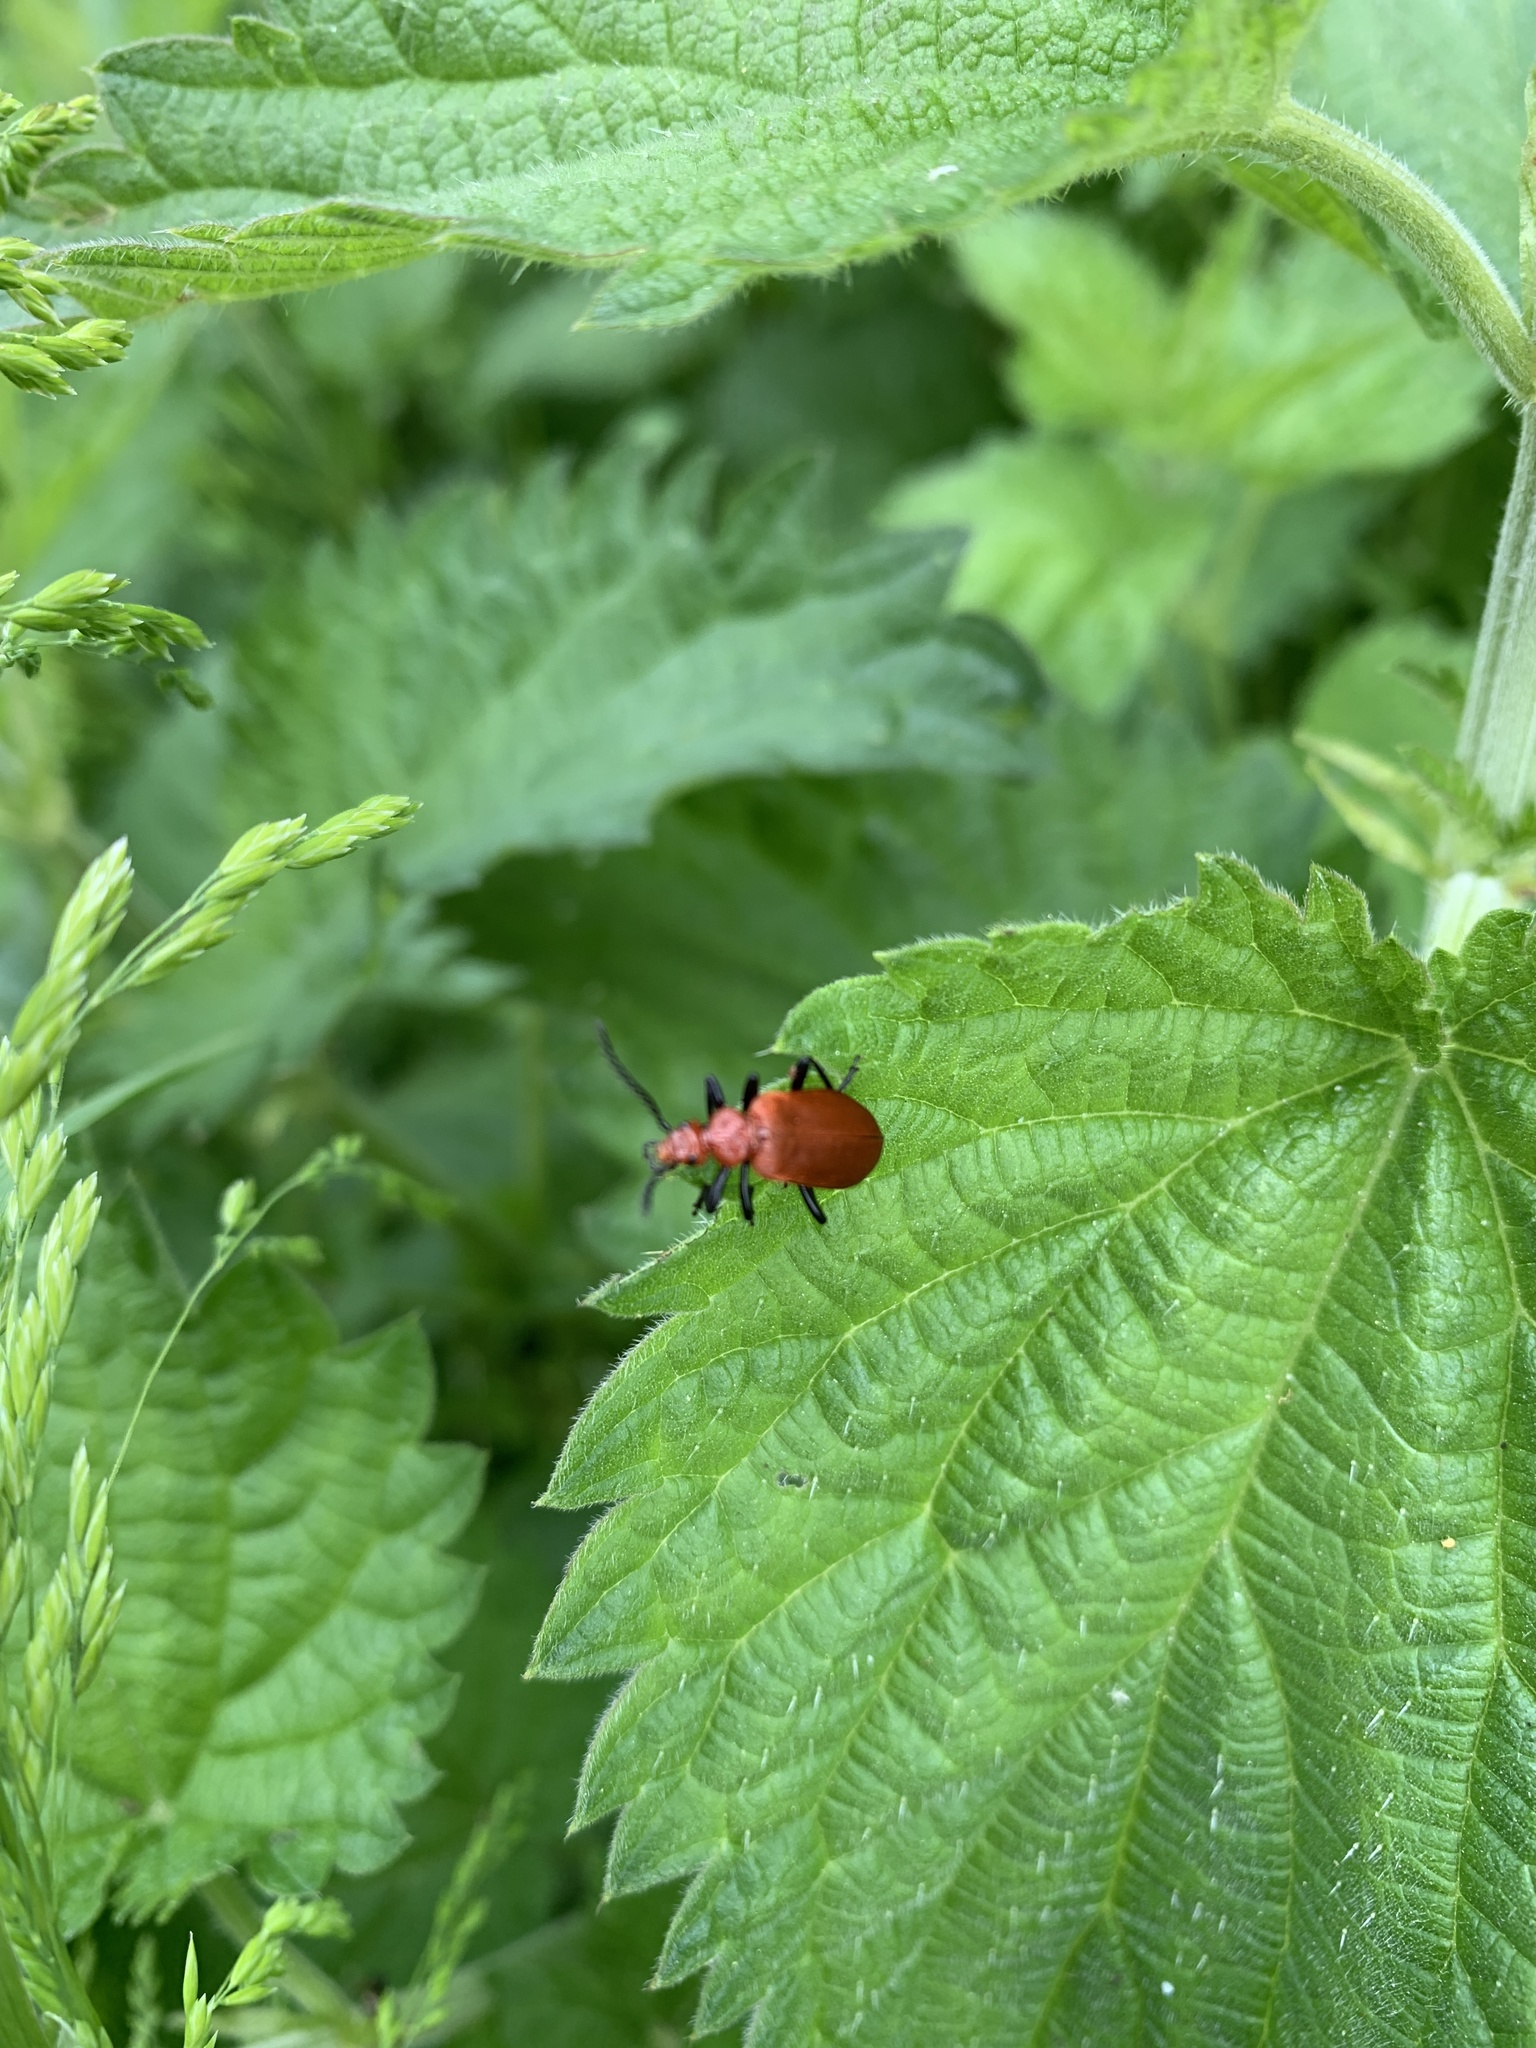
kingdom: Animalia
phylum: Arthropoda
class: Insecta
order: Coleoptera
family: Pyrochroidae
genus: Pyrochroa
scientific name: Pyrochroa serraticornis
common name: Red-headed cardinal beetle
